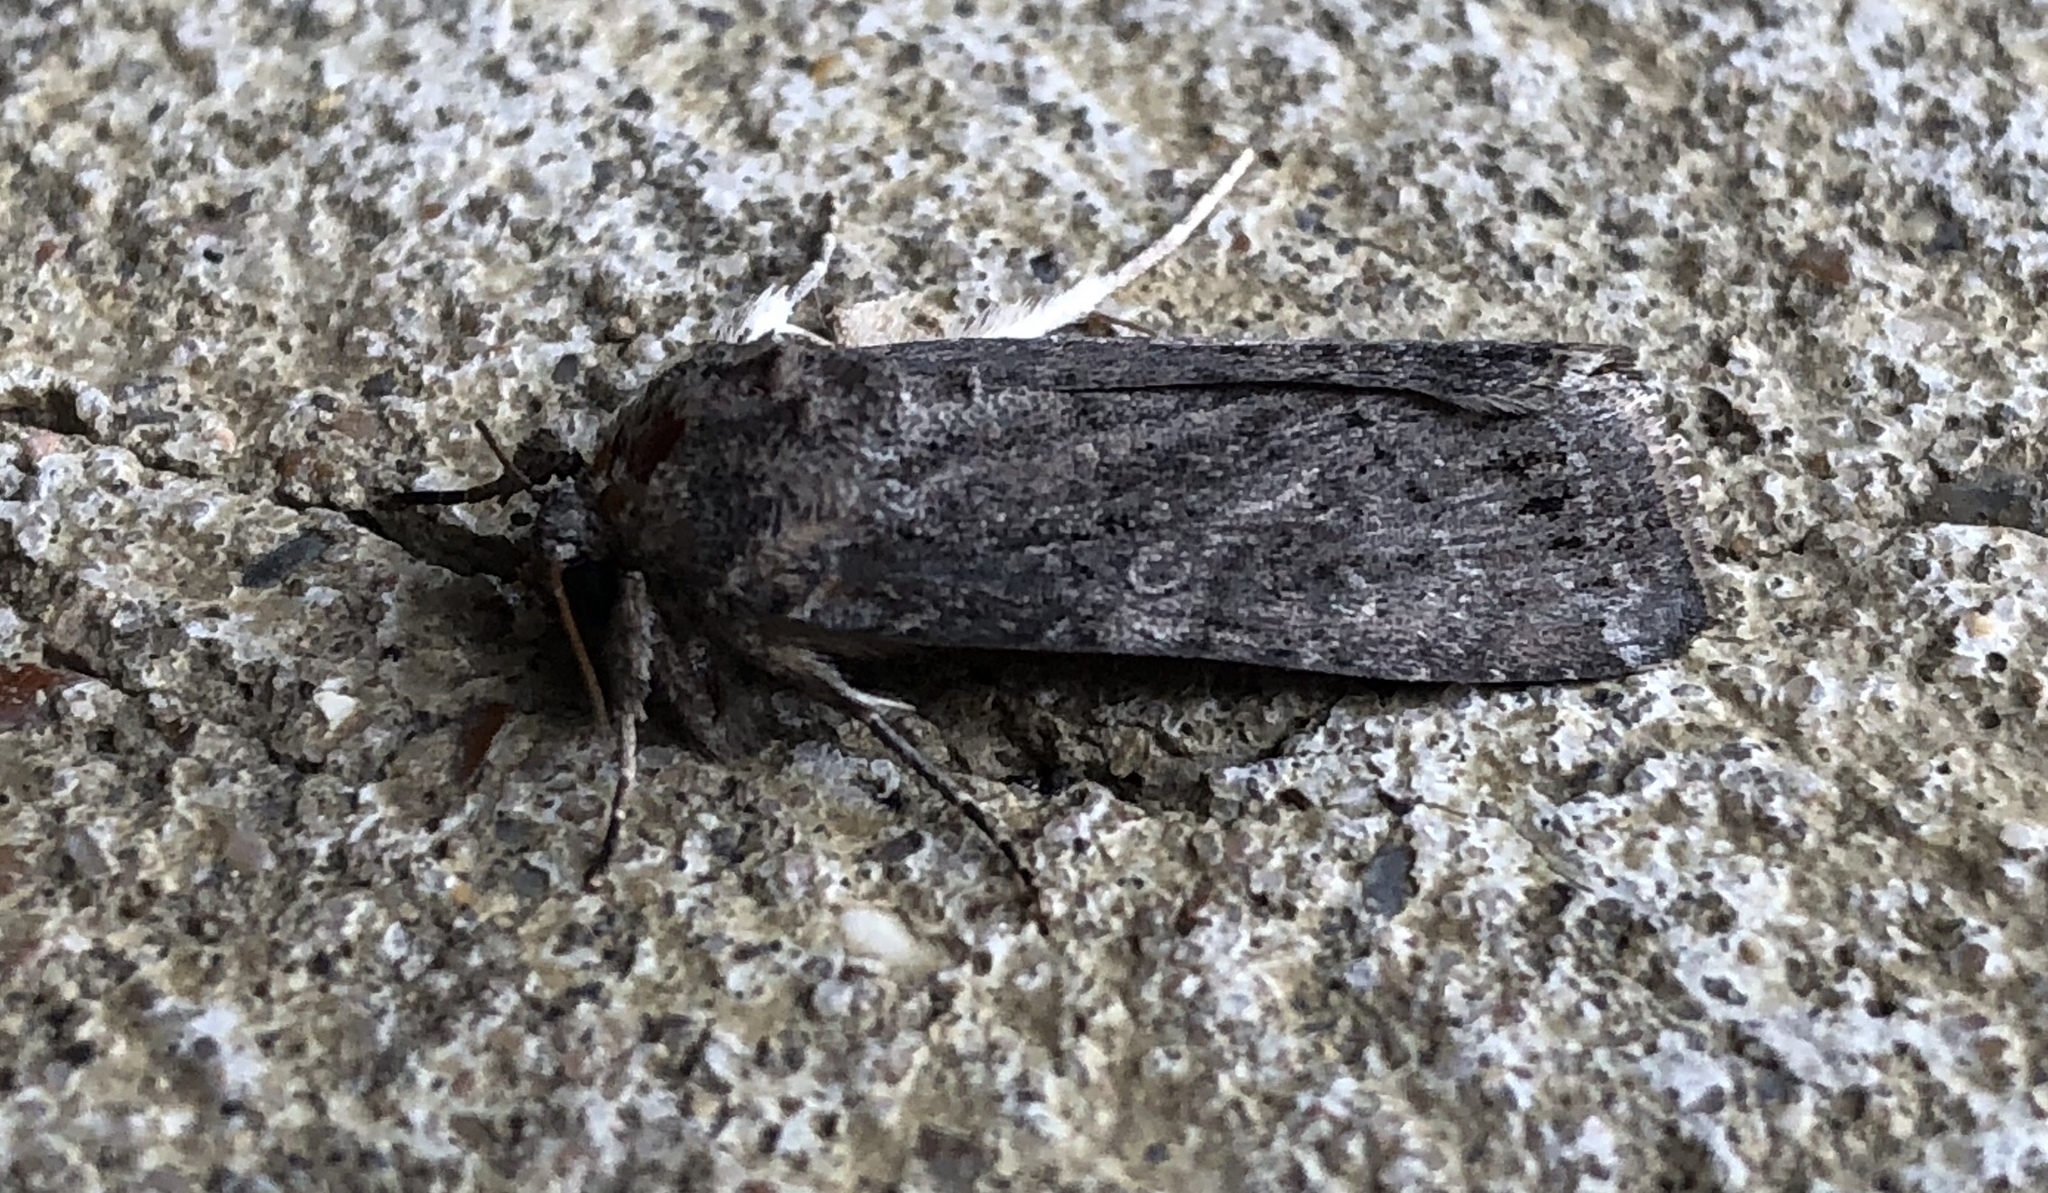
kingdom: Animalia
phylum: Arthropoda
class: Insecta
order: Lepidoptera
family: Noctuidae
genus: Spodoptera
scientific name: Spodoptera frugiperda
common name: Fall armyworm
